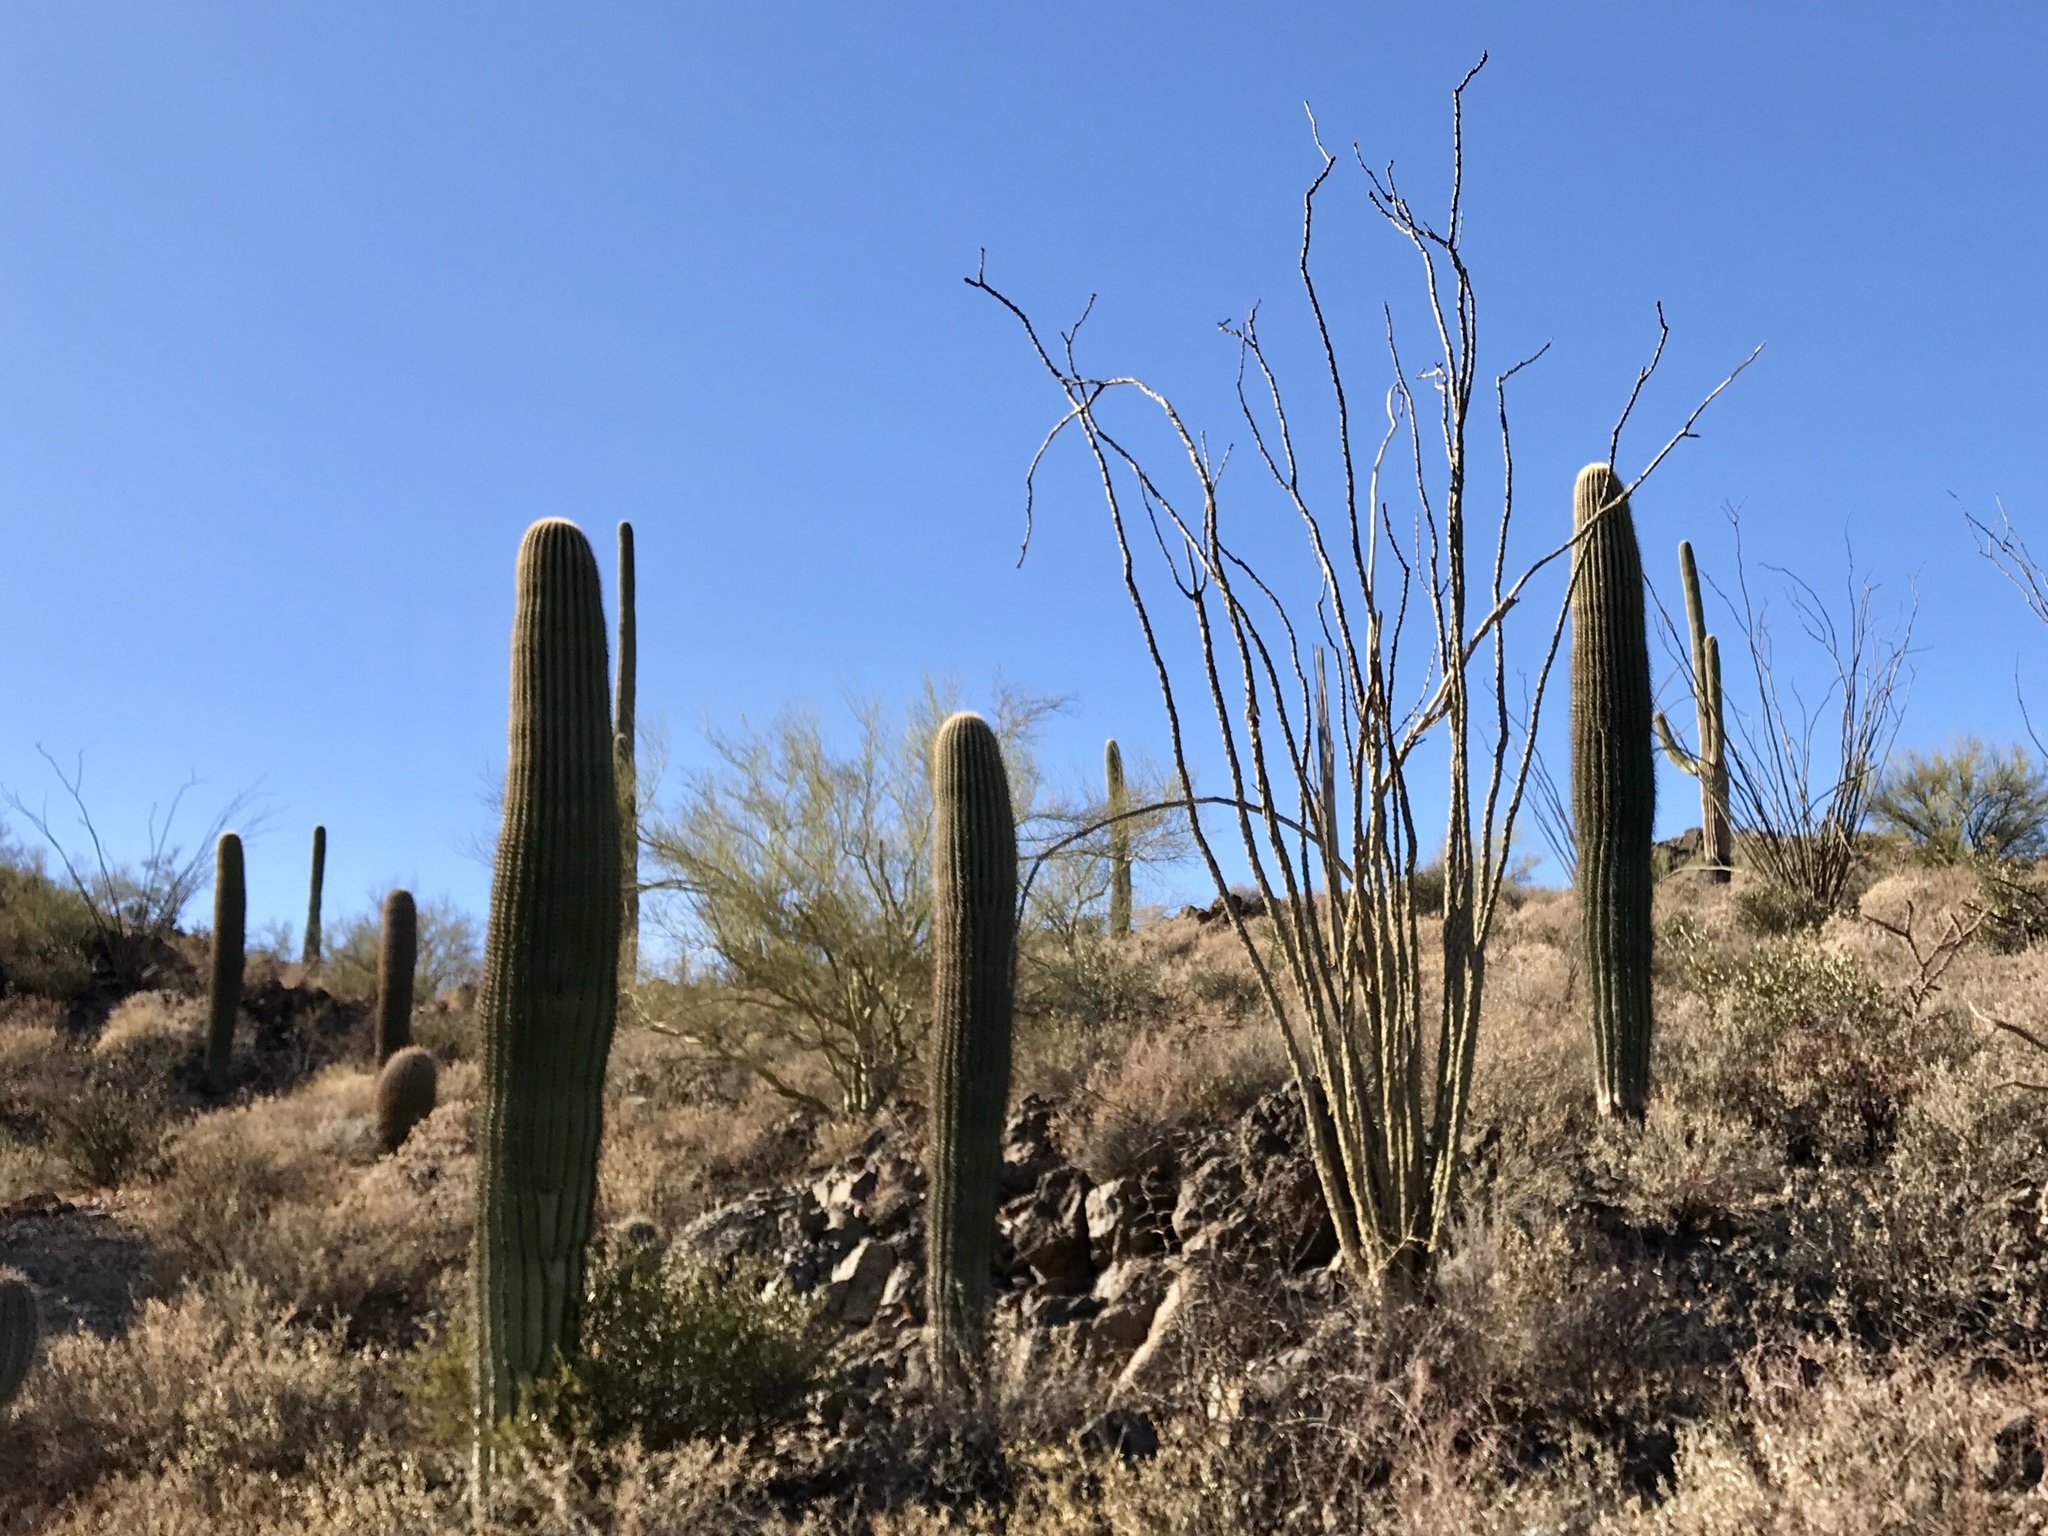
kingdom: Plantae
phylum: Tracheophyta
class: Magnoliopsida
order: Caryophyllales
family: Cactaceae
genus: Carnegiea
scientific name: Carnegiea gigantea
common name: Saguaro
